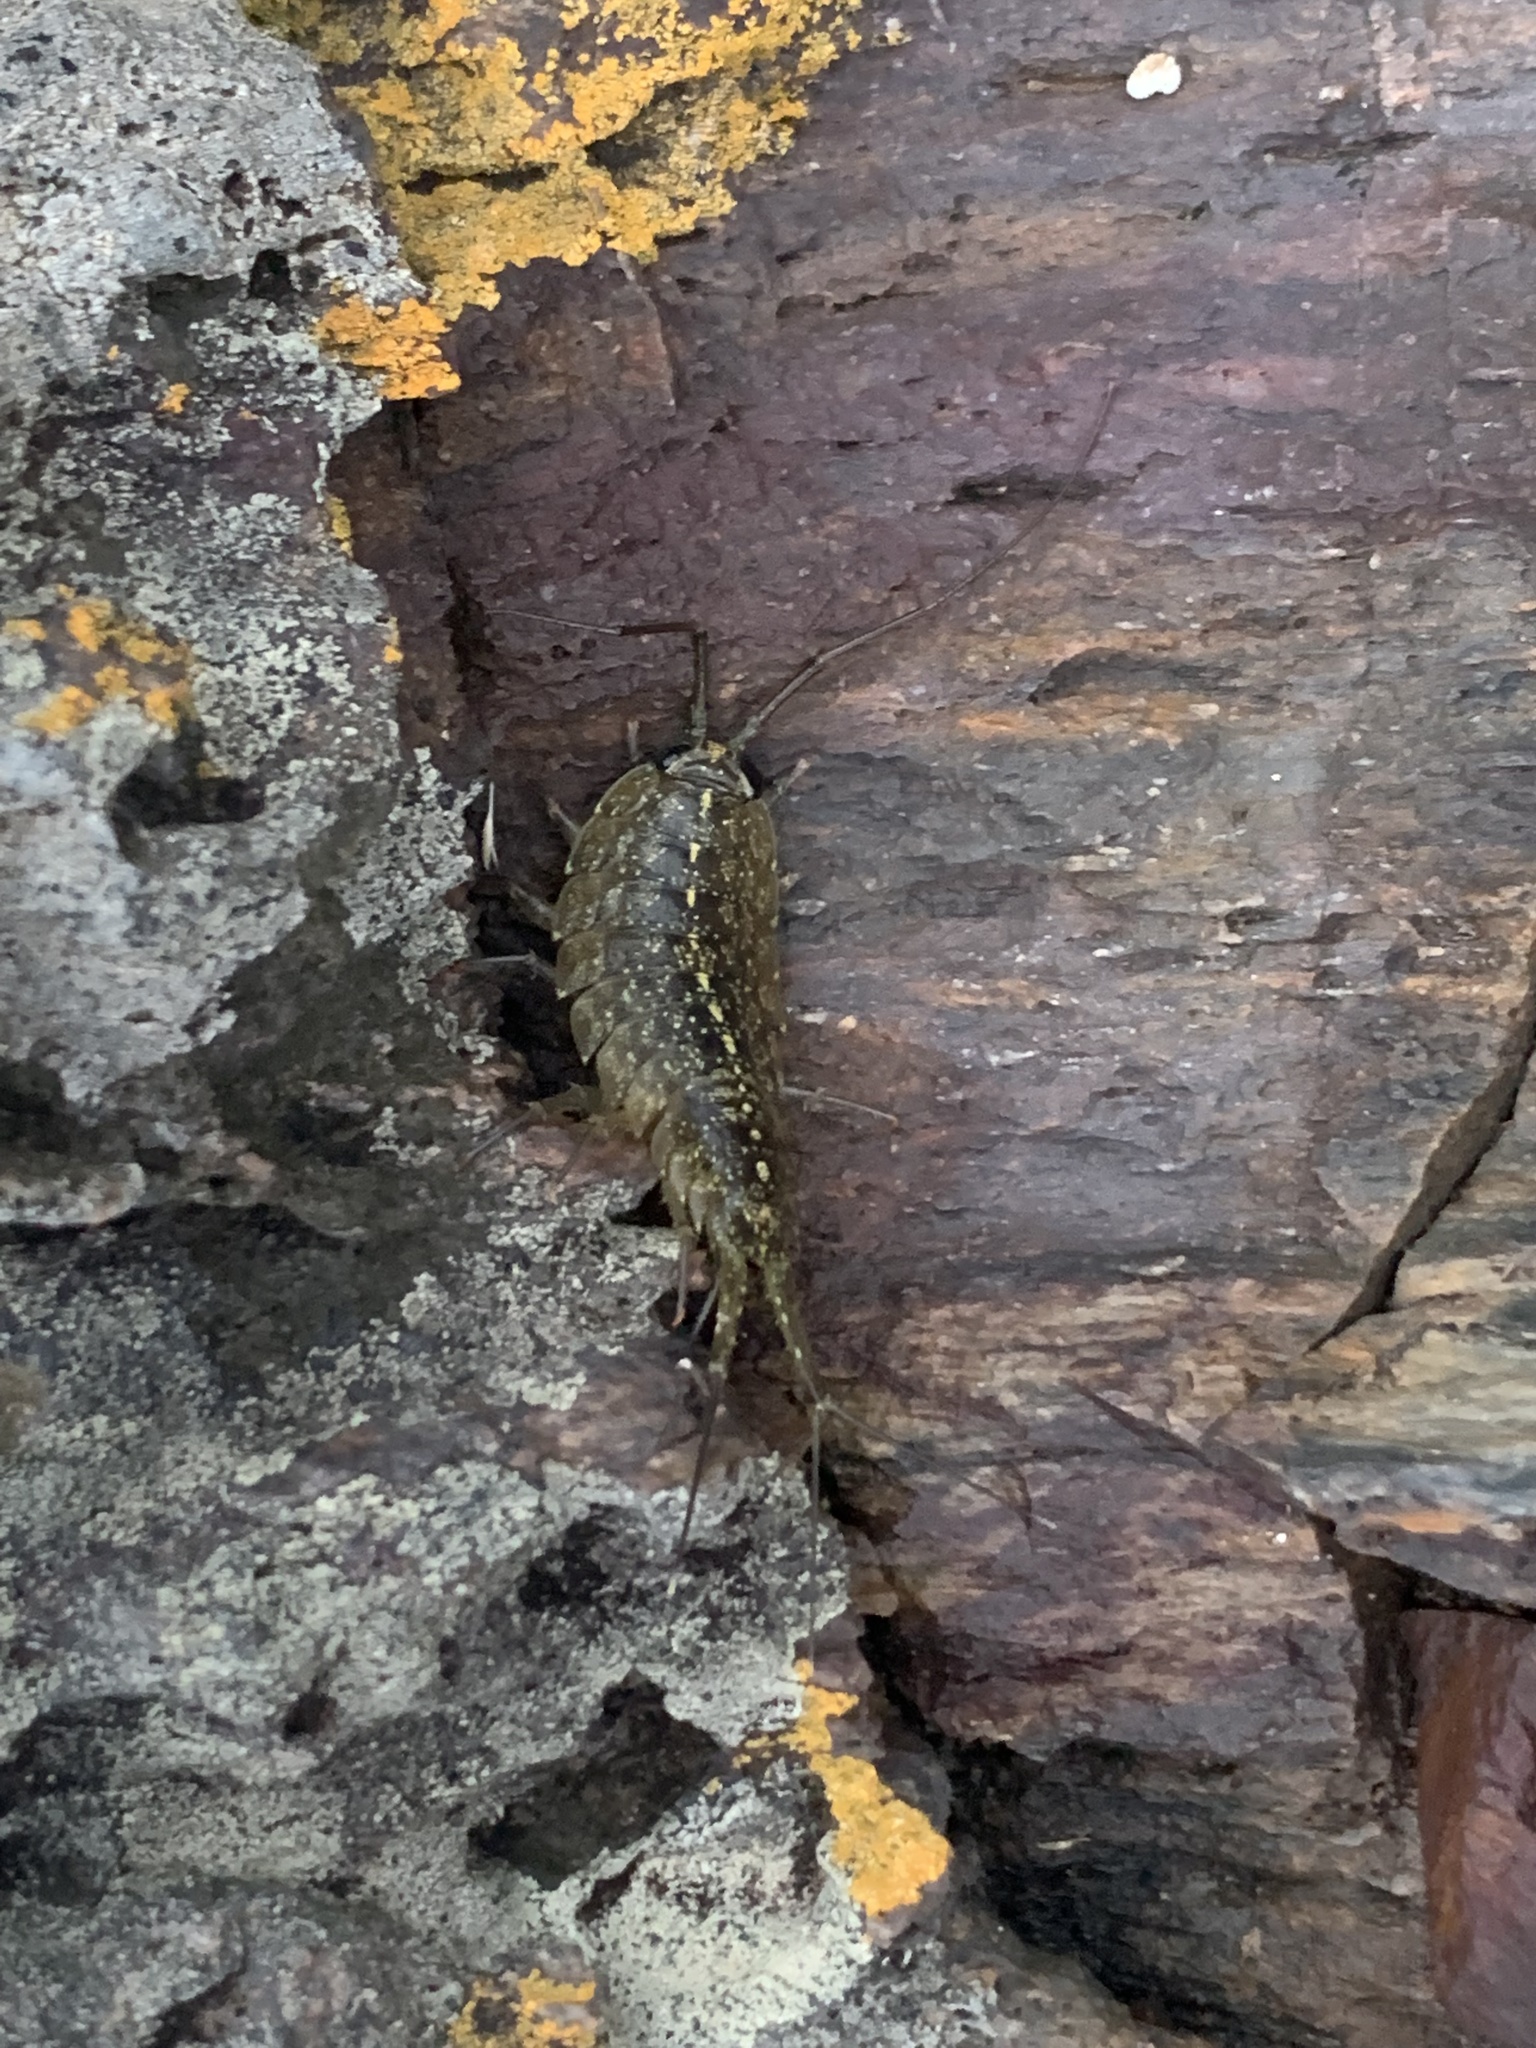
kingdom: Animalia
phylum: Arthropoda
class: Malacostraca
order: Isopoda
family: Ligiidae
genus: Ligia
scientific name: Ligia exotica
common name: Wharf roach
